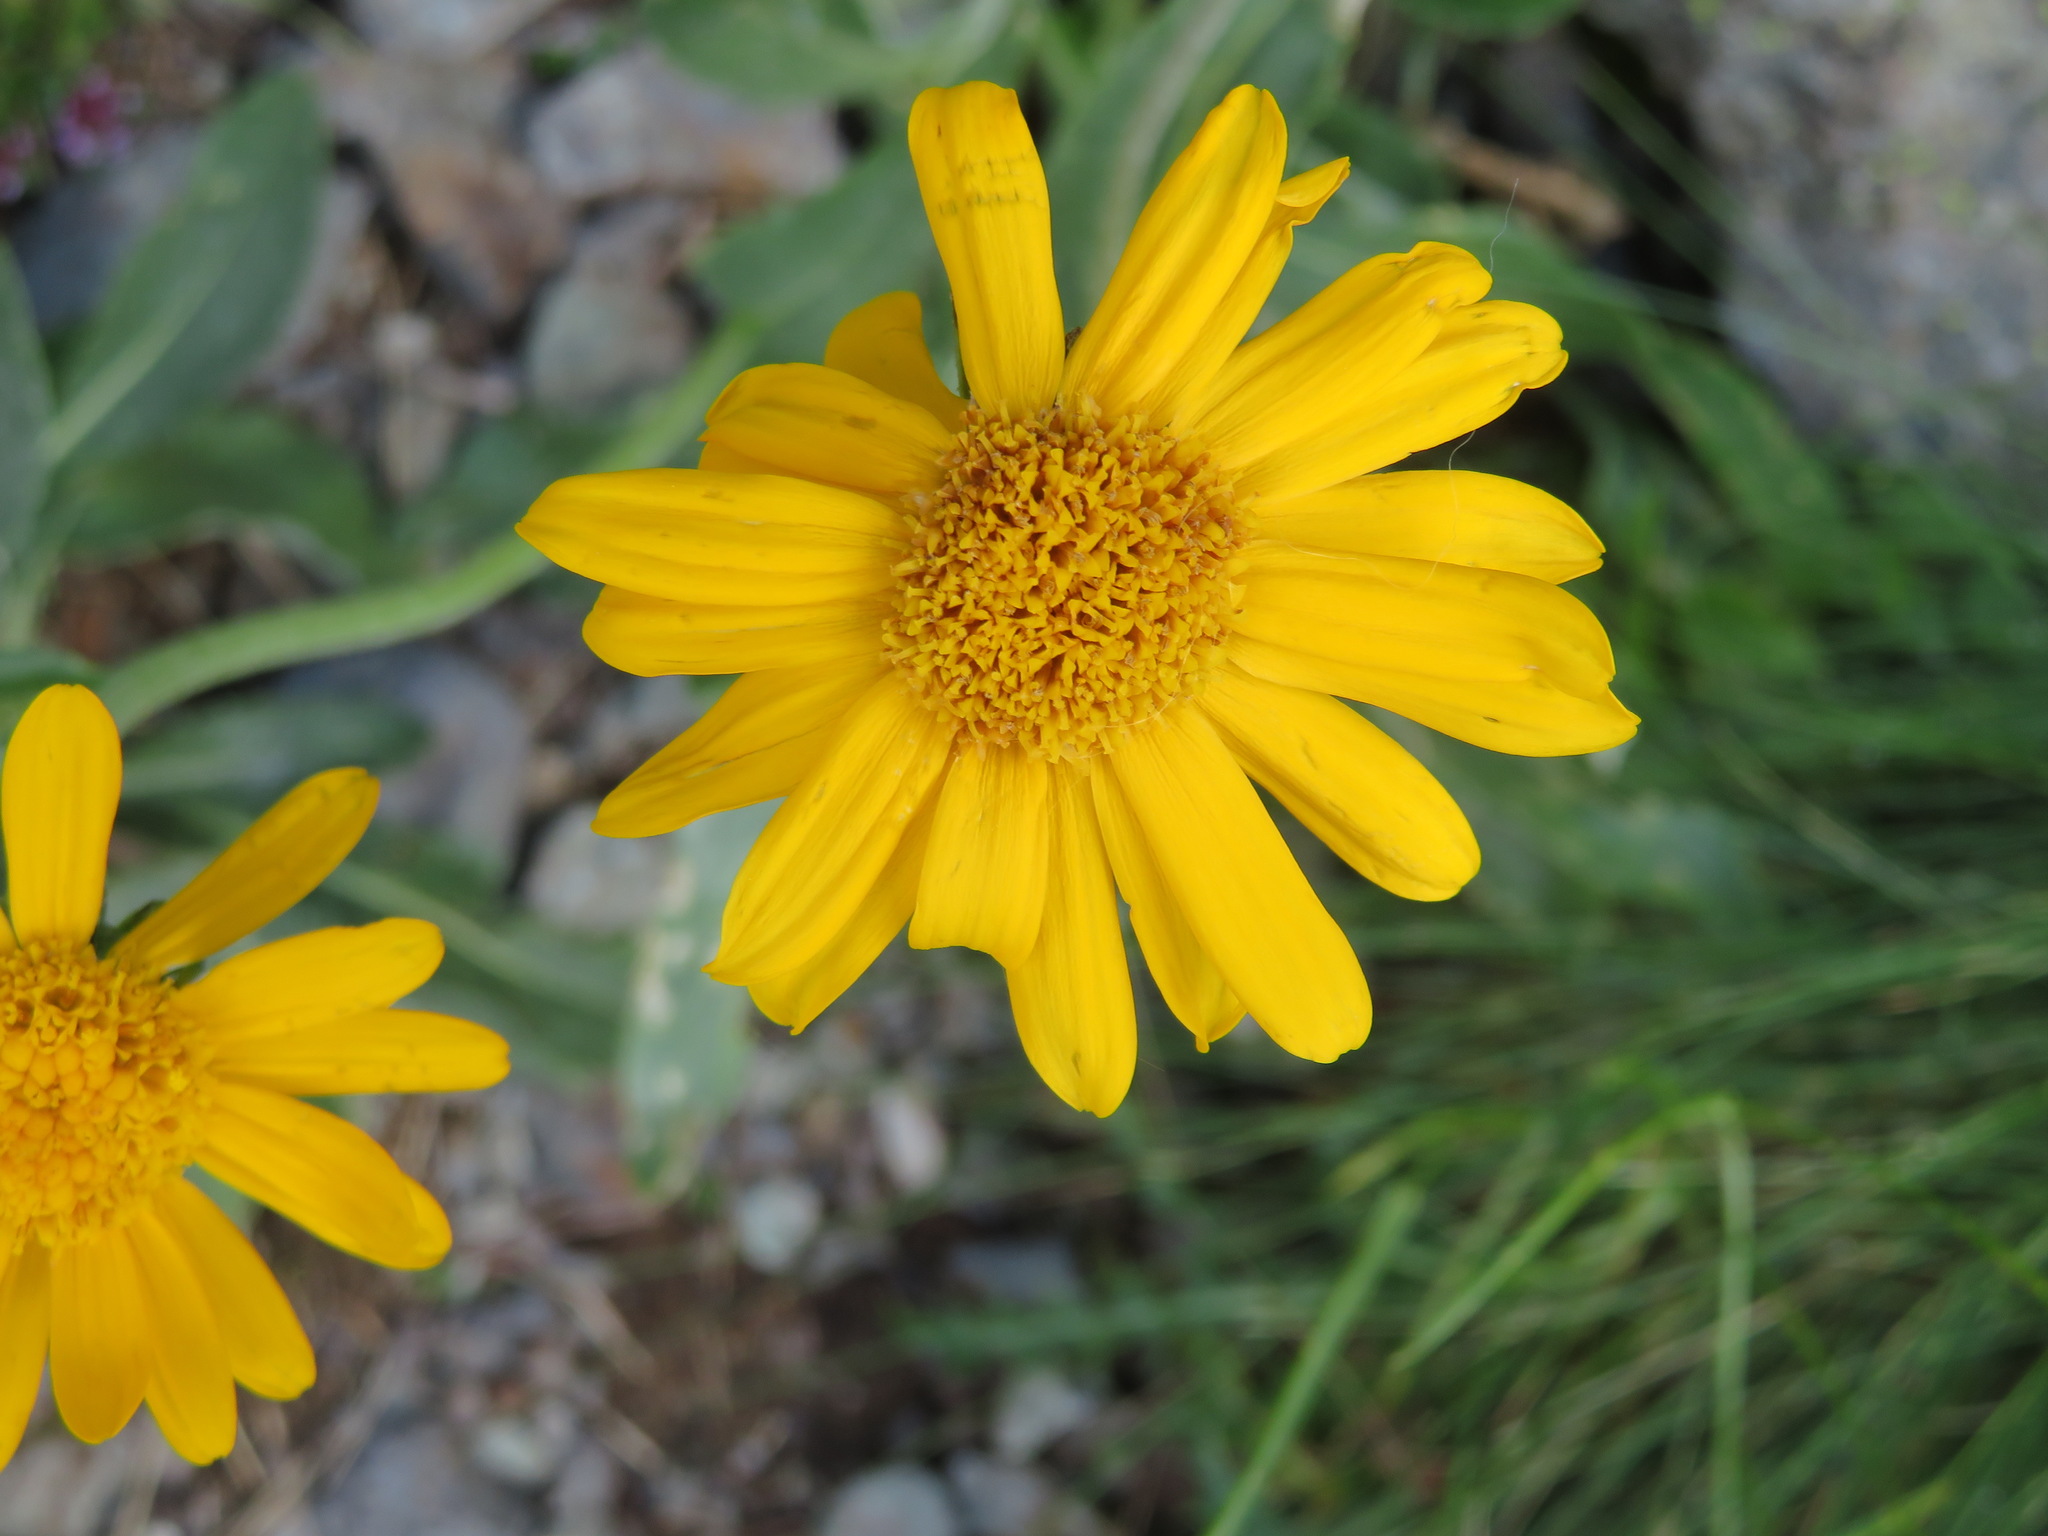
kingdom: Plantae
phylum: Tracheophyta
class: Magnoliopsida
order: Asterales
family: Asteraceae
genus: Senecio
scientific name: Senecio doronicum
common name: Chamois ragwort
